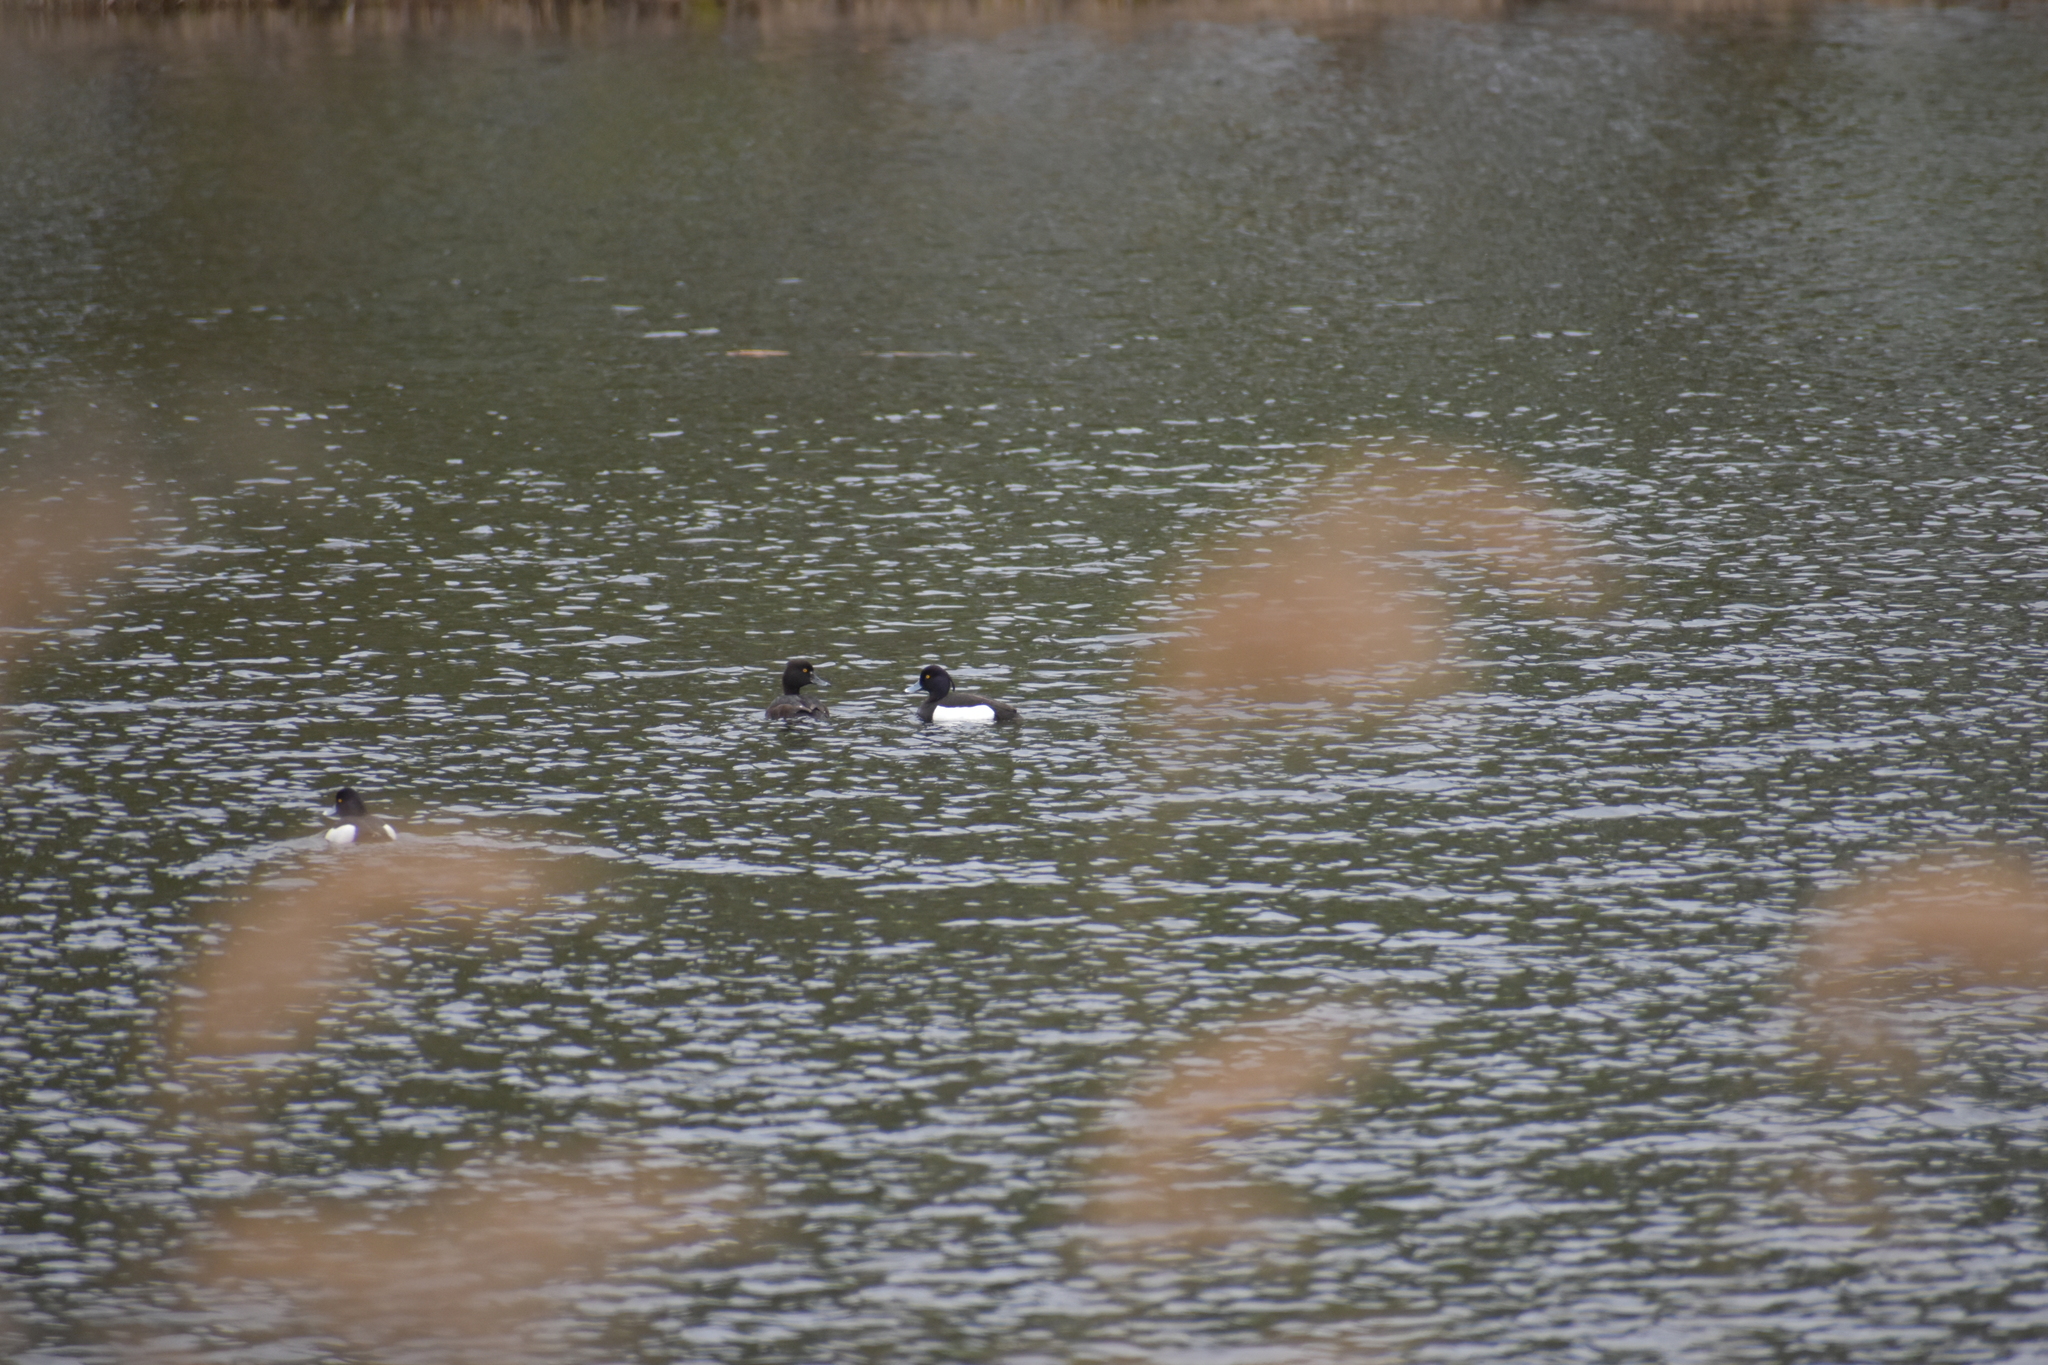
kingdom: Animalia
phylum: Chordata
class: Aves
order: Anseriformes
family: Anatidae
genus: Aythya
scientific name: Aythya fuligula
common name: Tufted duck
